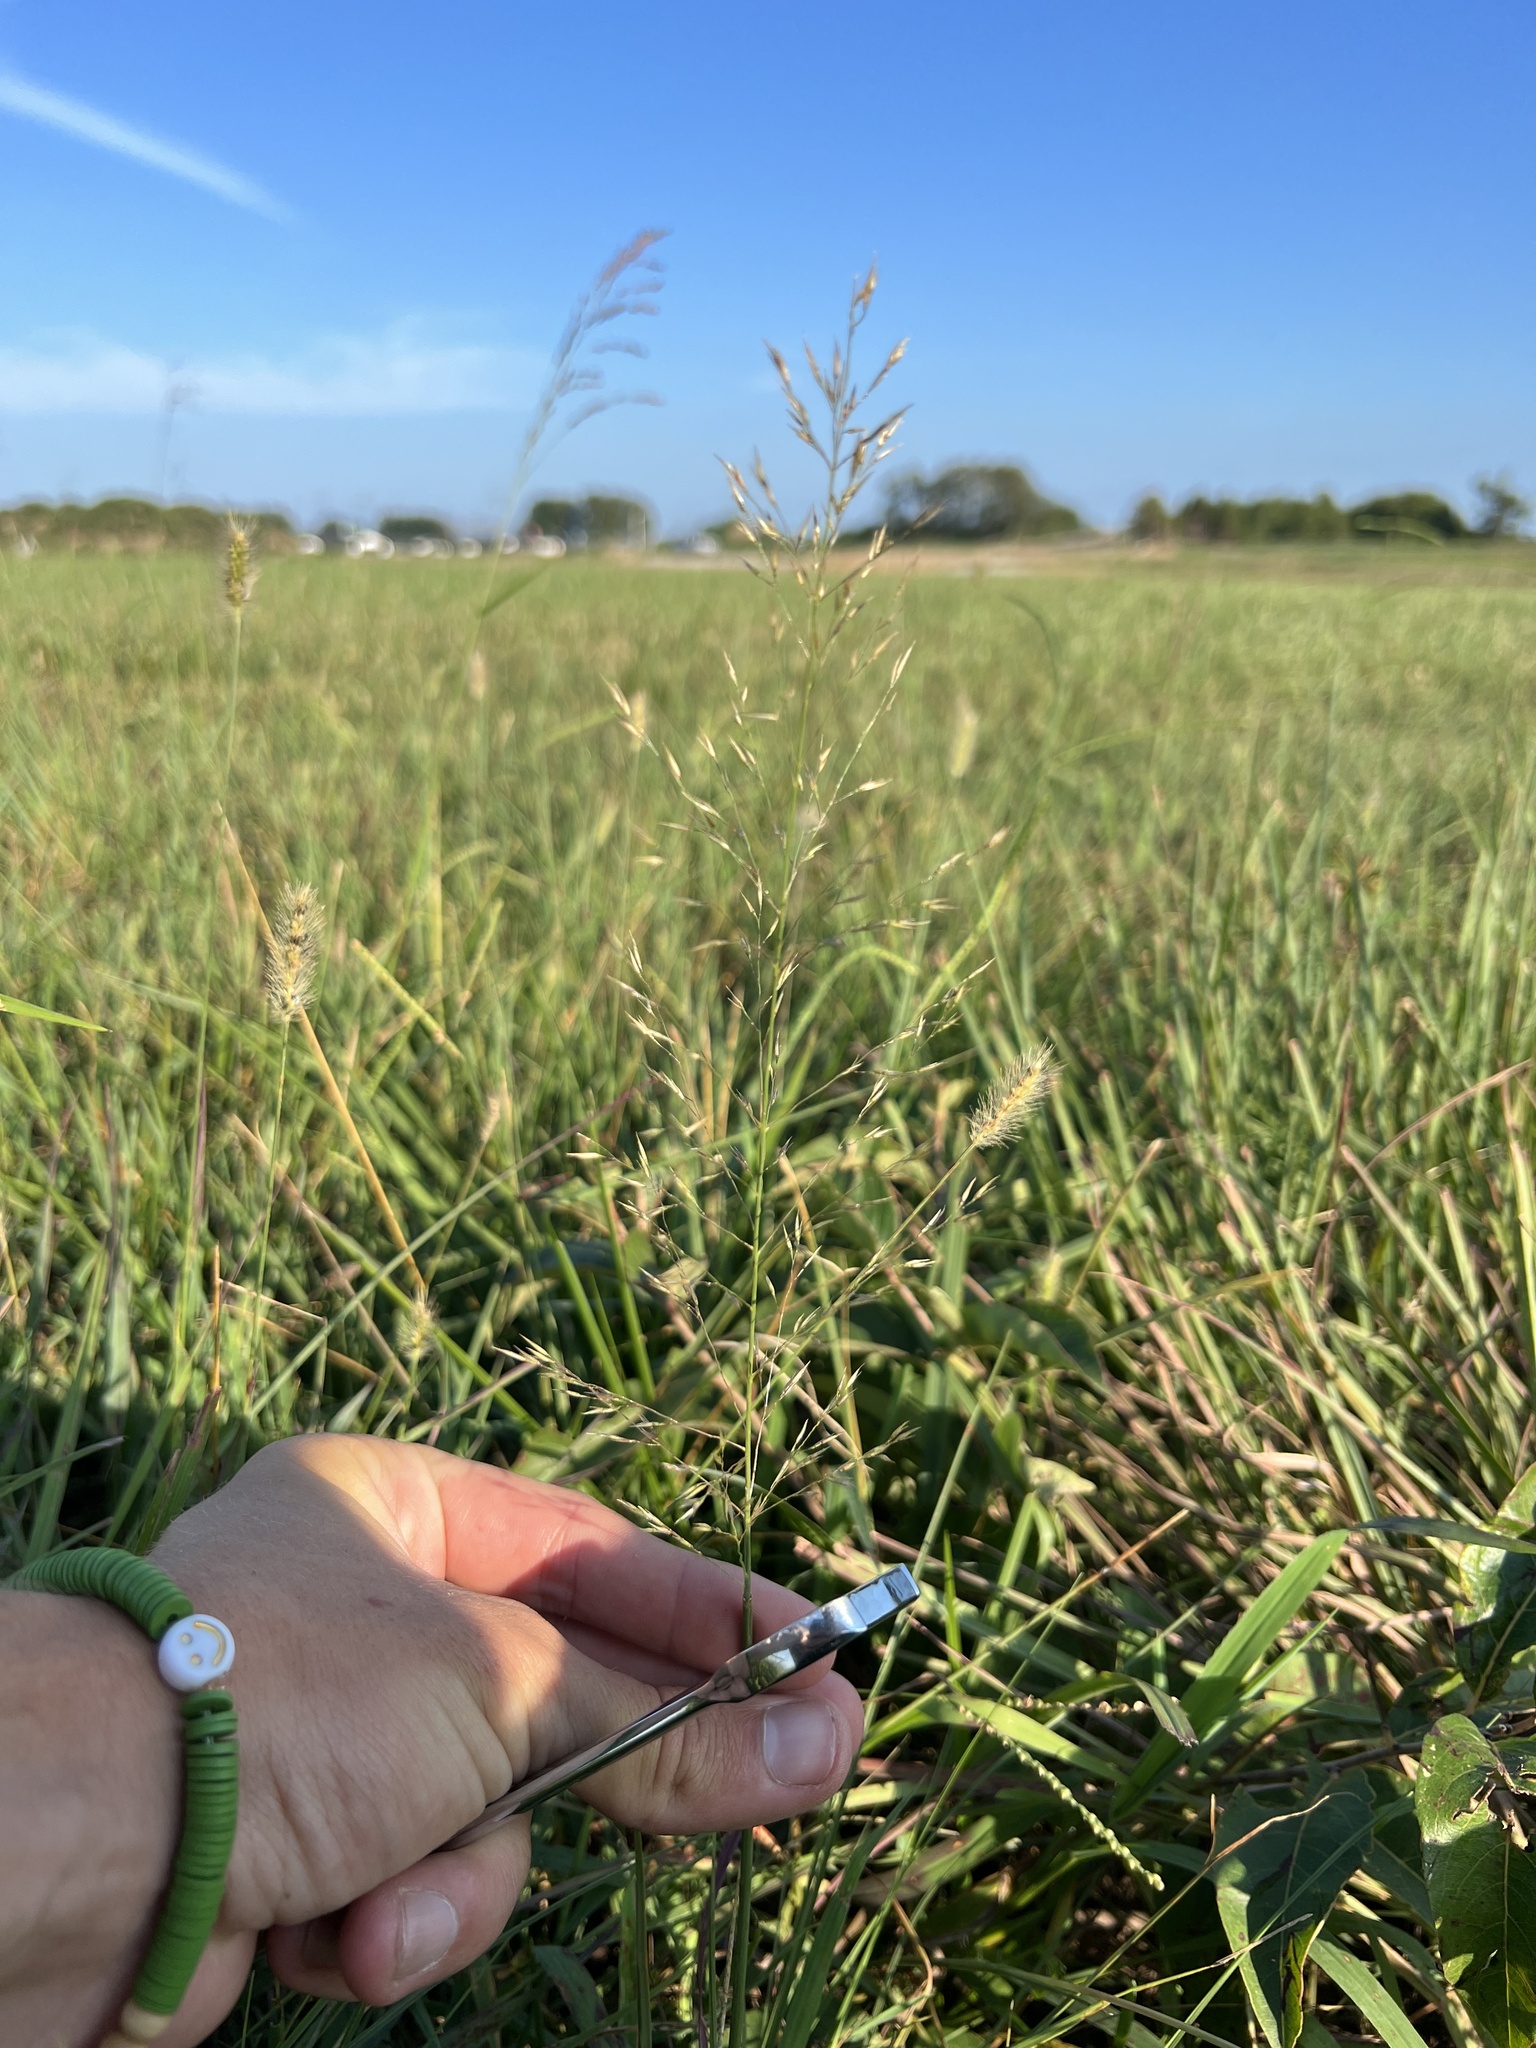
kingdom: Plantae
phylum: Tracheophyta
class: Liliopsida
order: Poales
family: Poaceae
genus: Sporobolus
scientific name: Sporobolus heterolepis
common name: Prairie dropseed
